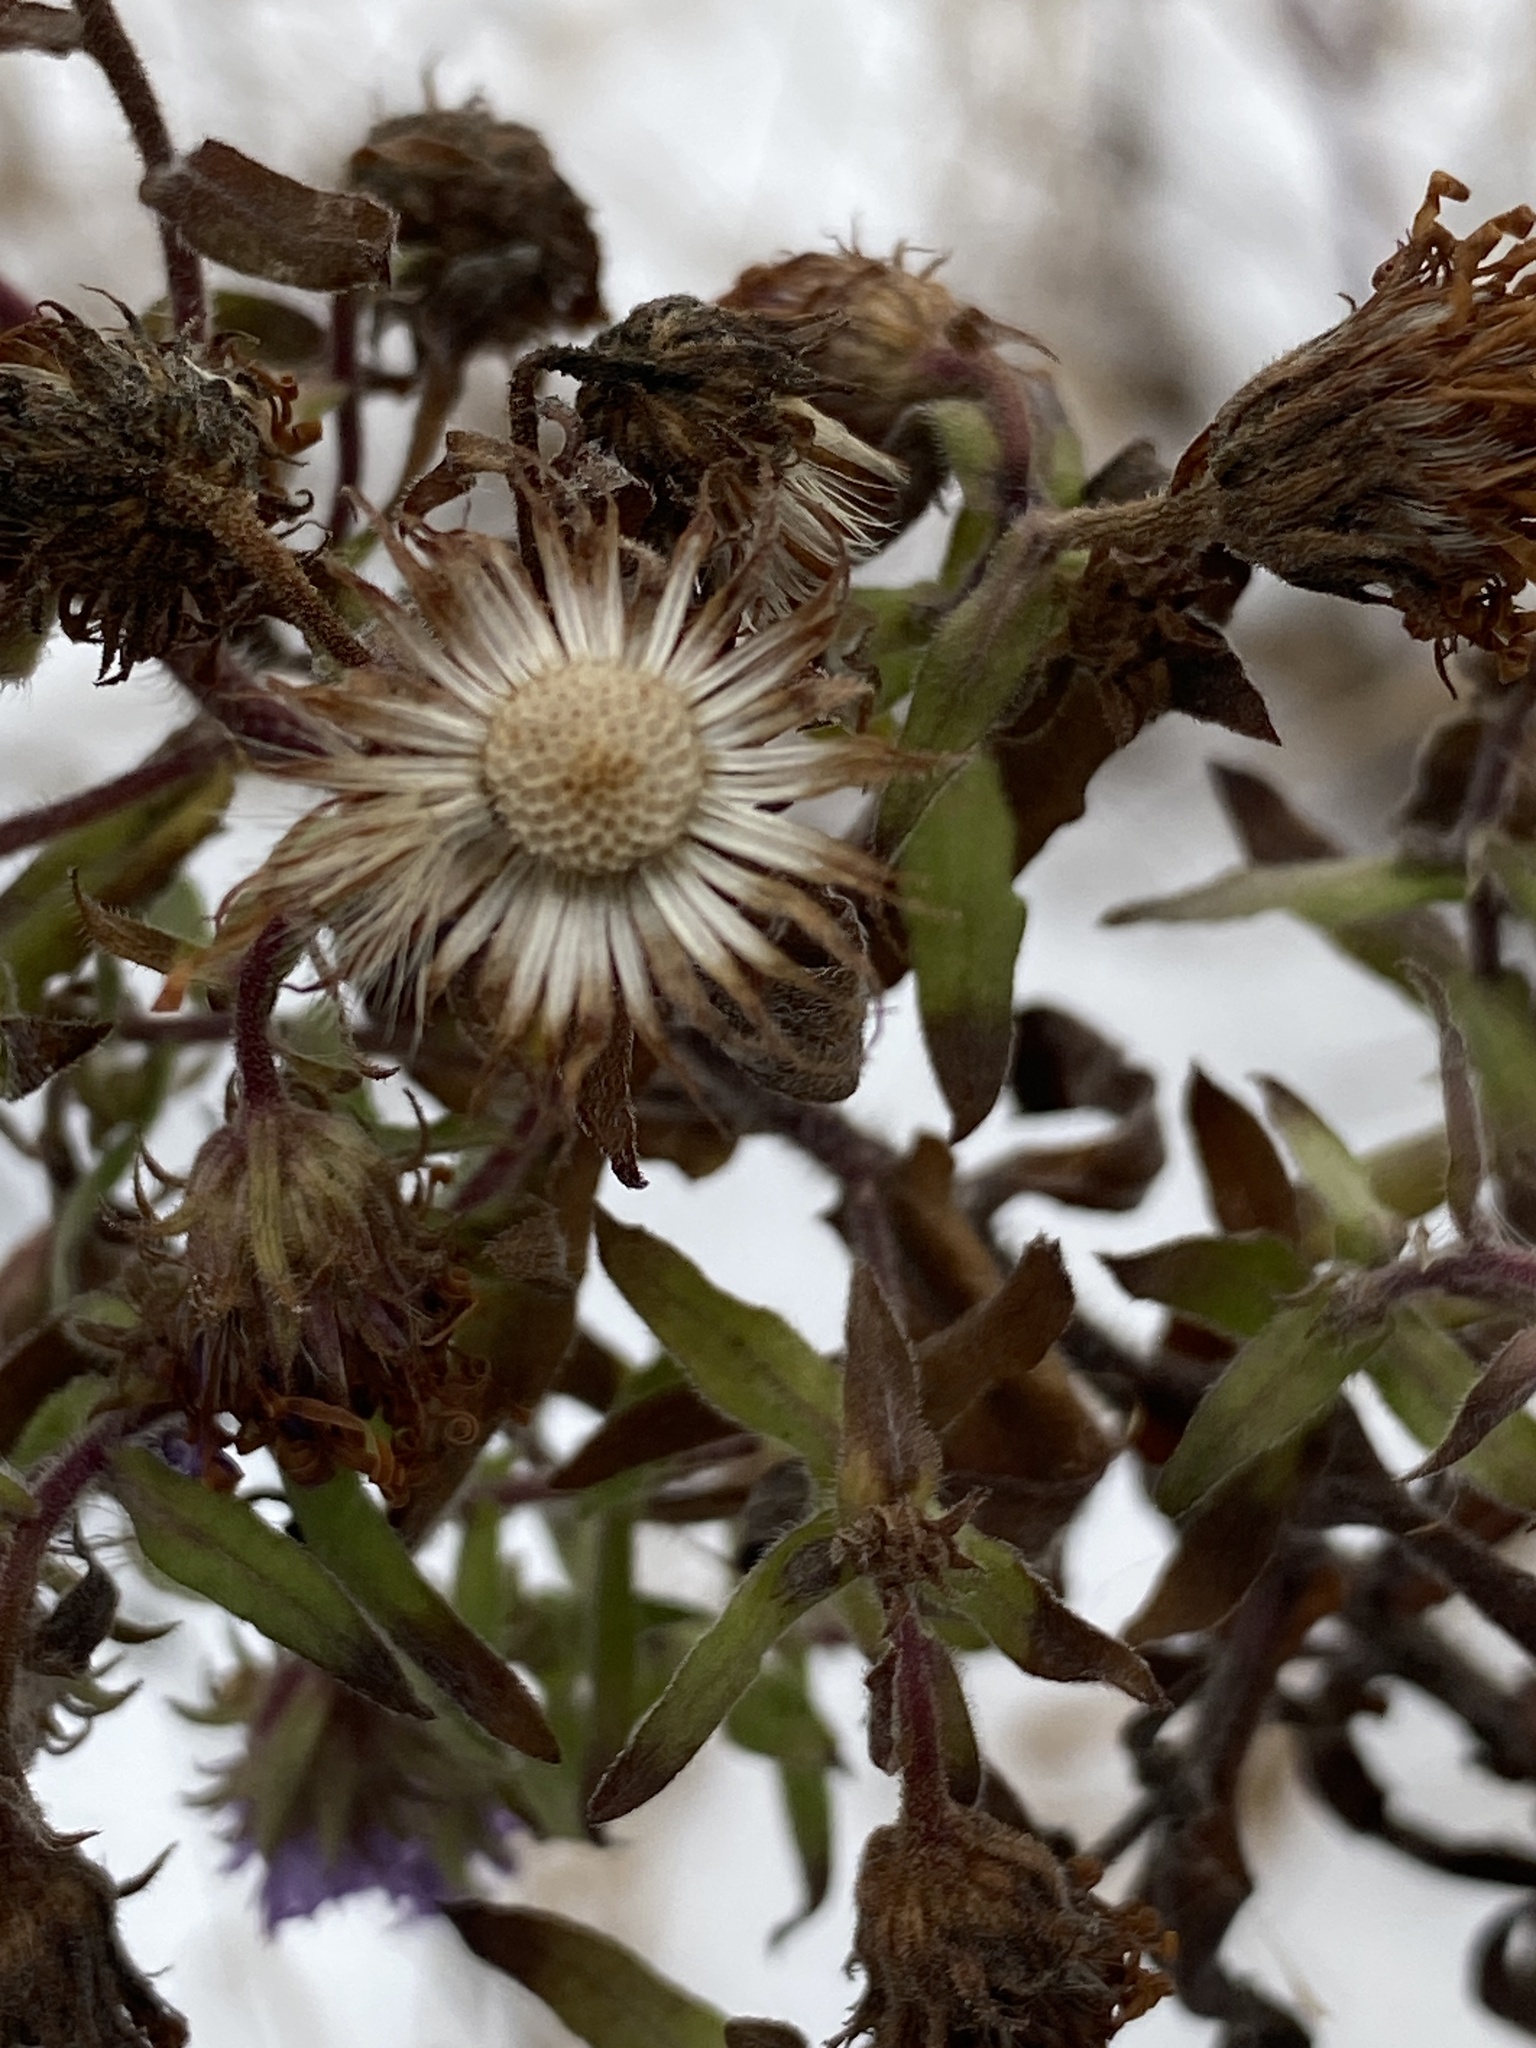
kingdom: Plantae
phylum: Tracheophyta
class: Magnoliopsida
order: Asterales
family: Asteraceae
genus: Symphyotrichum
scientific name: Symphyotrichum novae-angliae
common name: Michaelmas daisy
